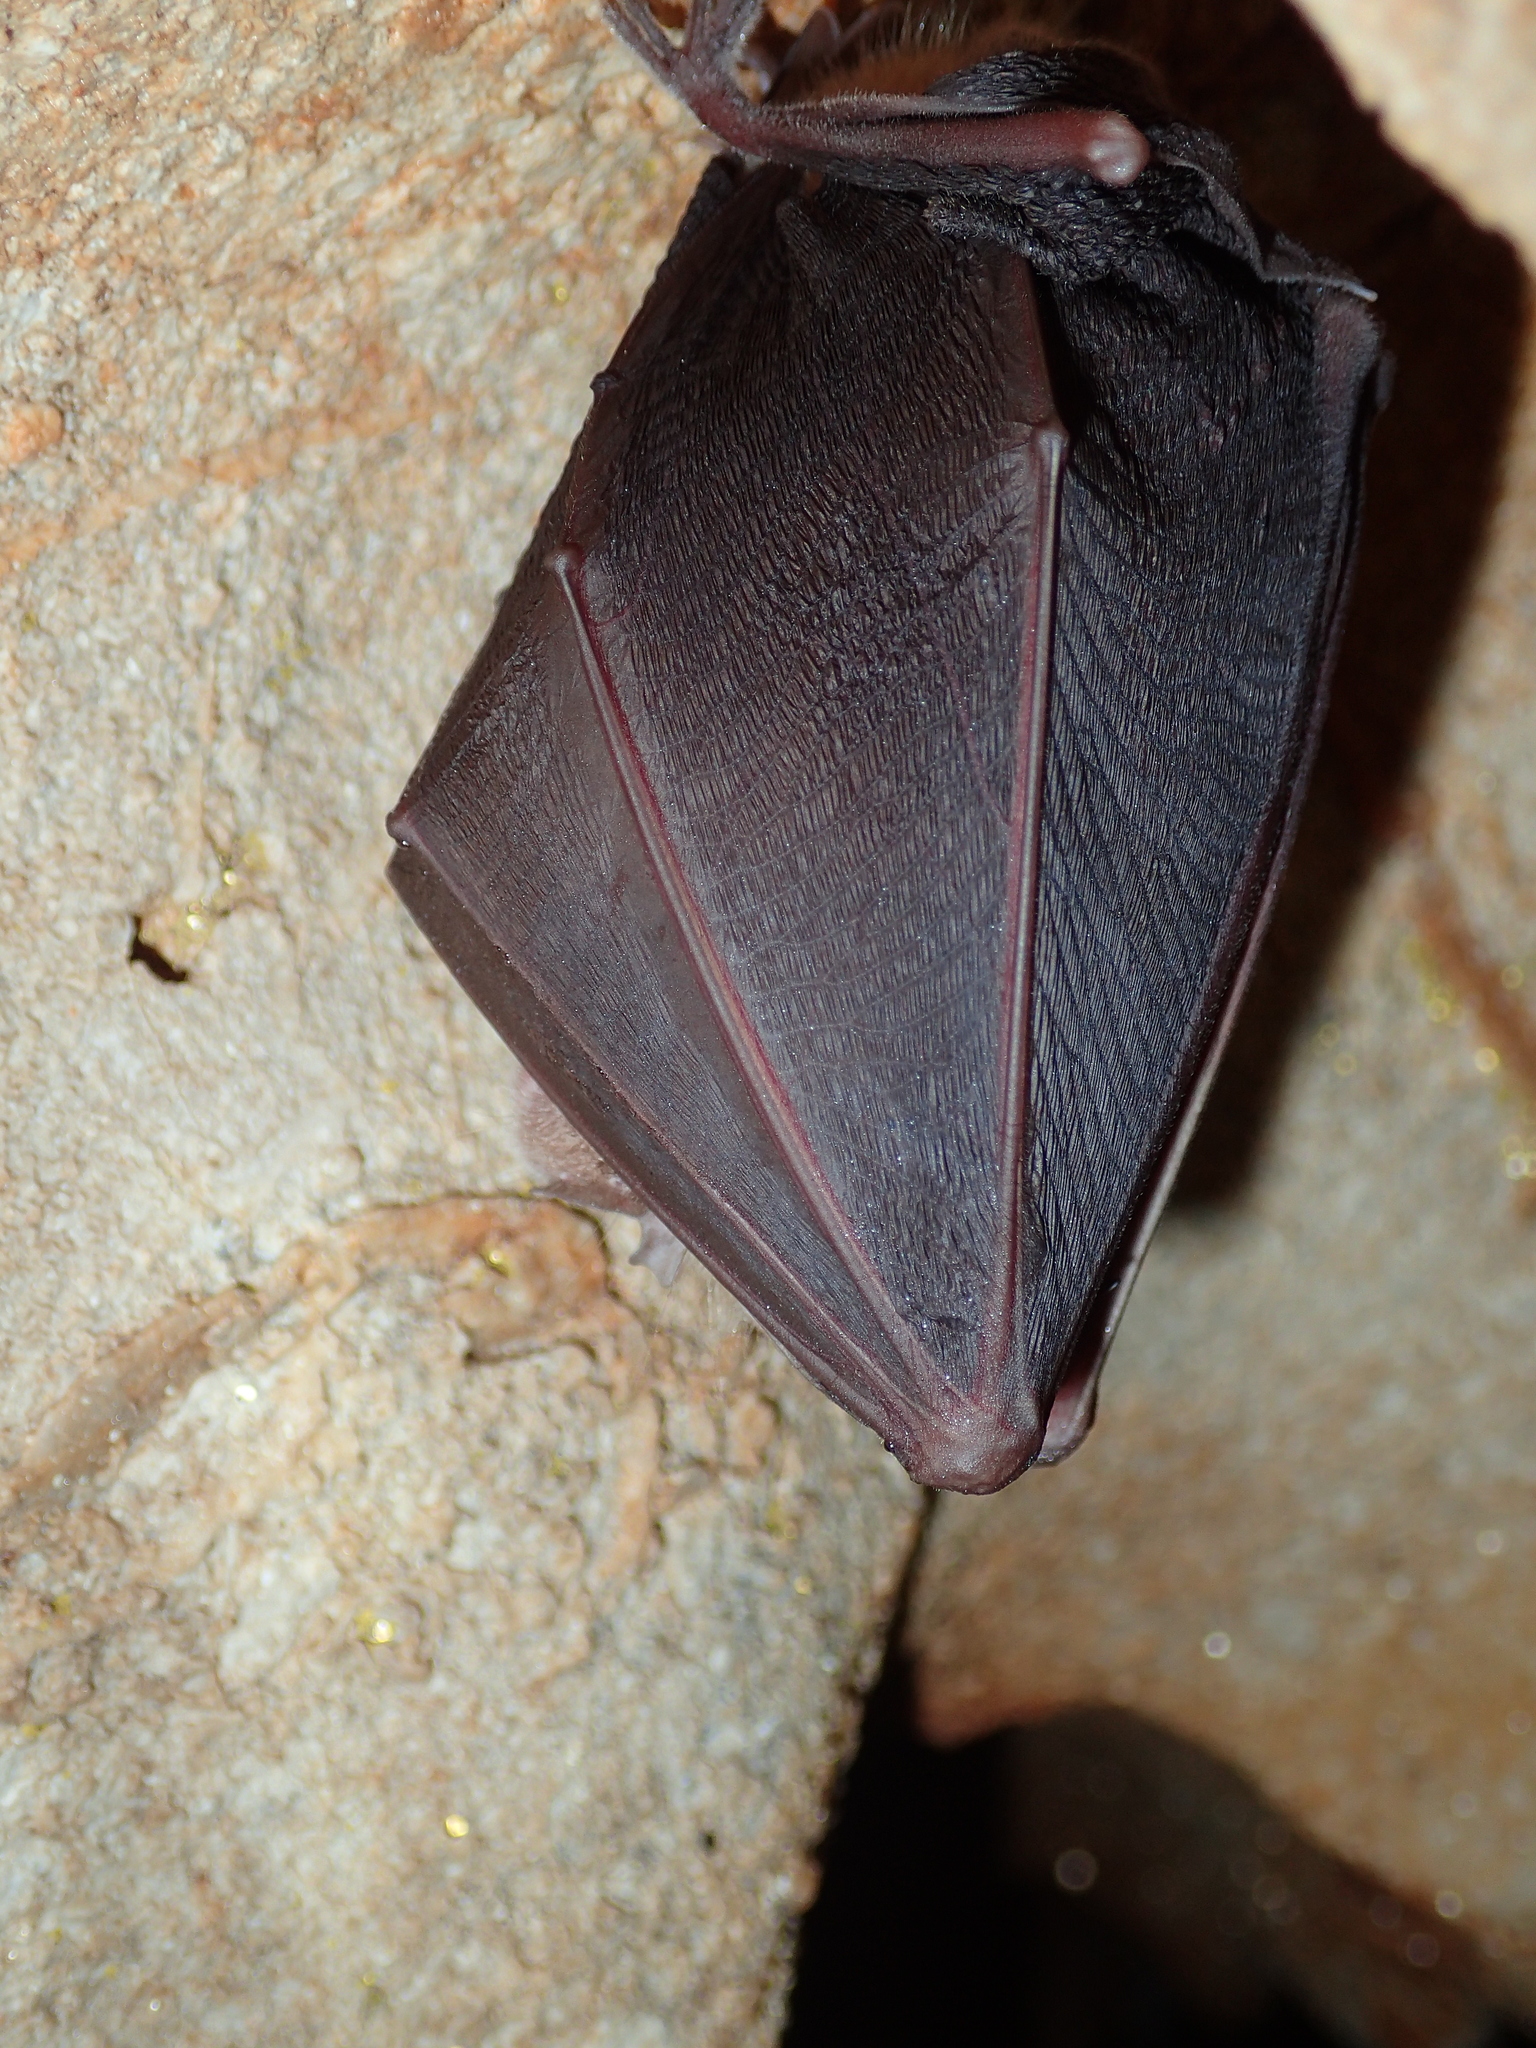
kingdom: Animalia
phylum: Chordata
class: Mammalia
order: Chiroptera
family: Rhinolophidae
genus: Rhinolophus
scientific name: Rhinolophus ferrumequinum
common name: Greater horseshoe bat
